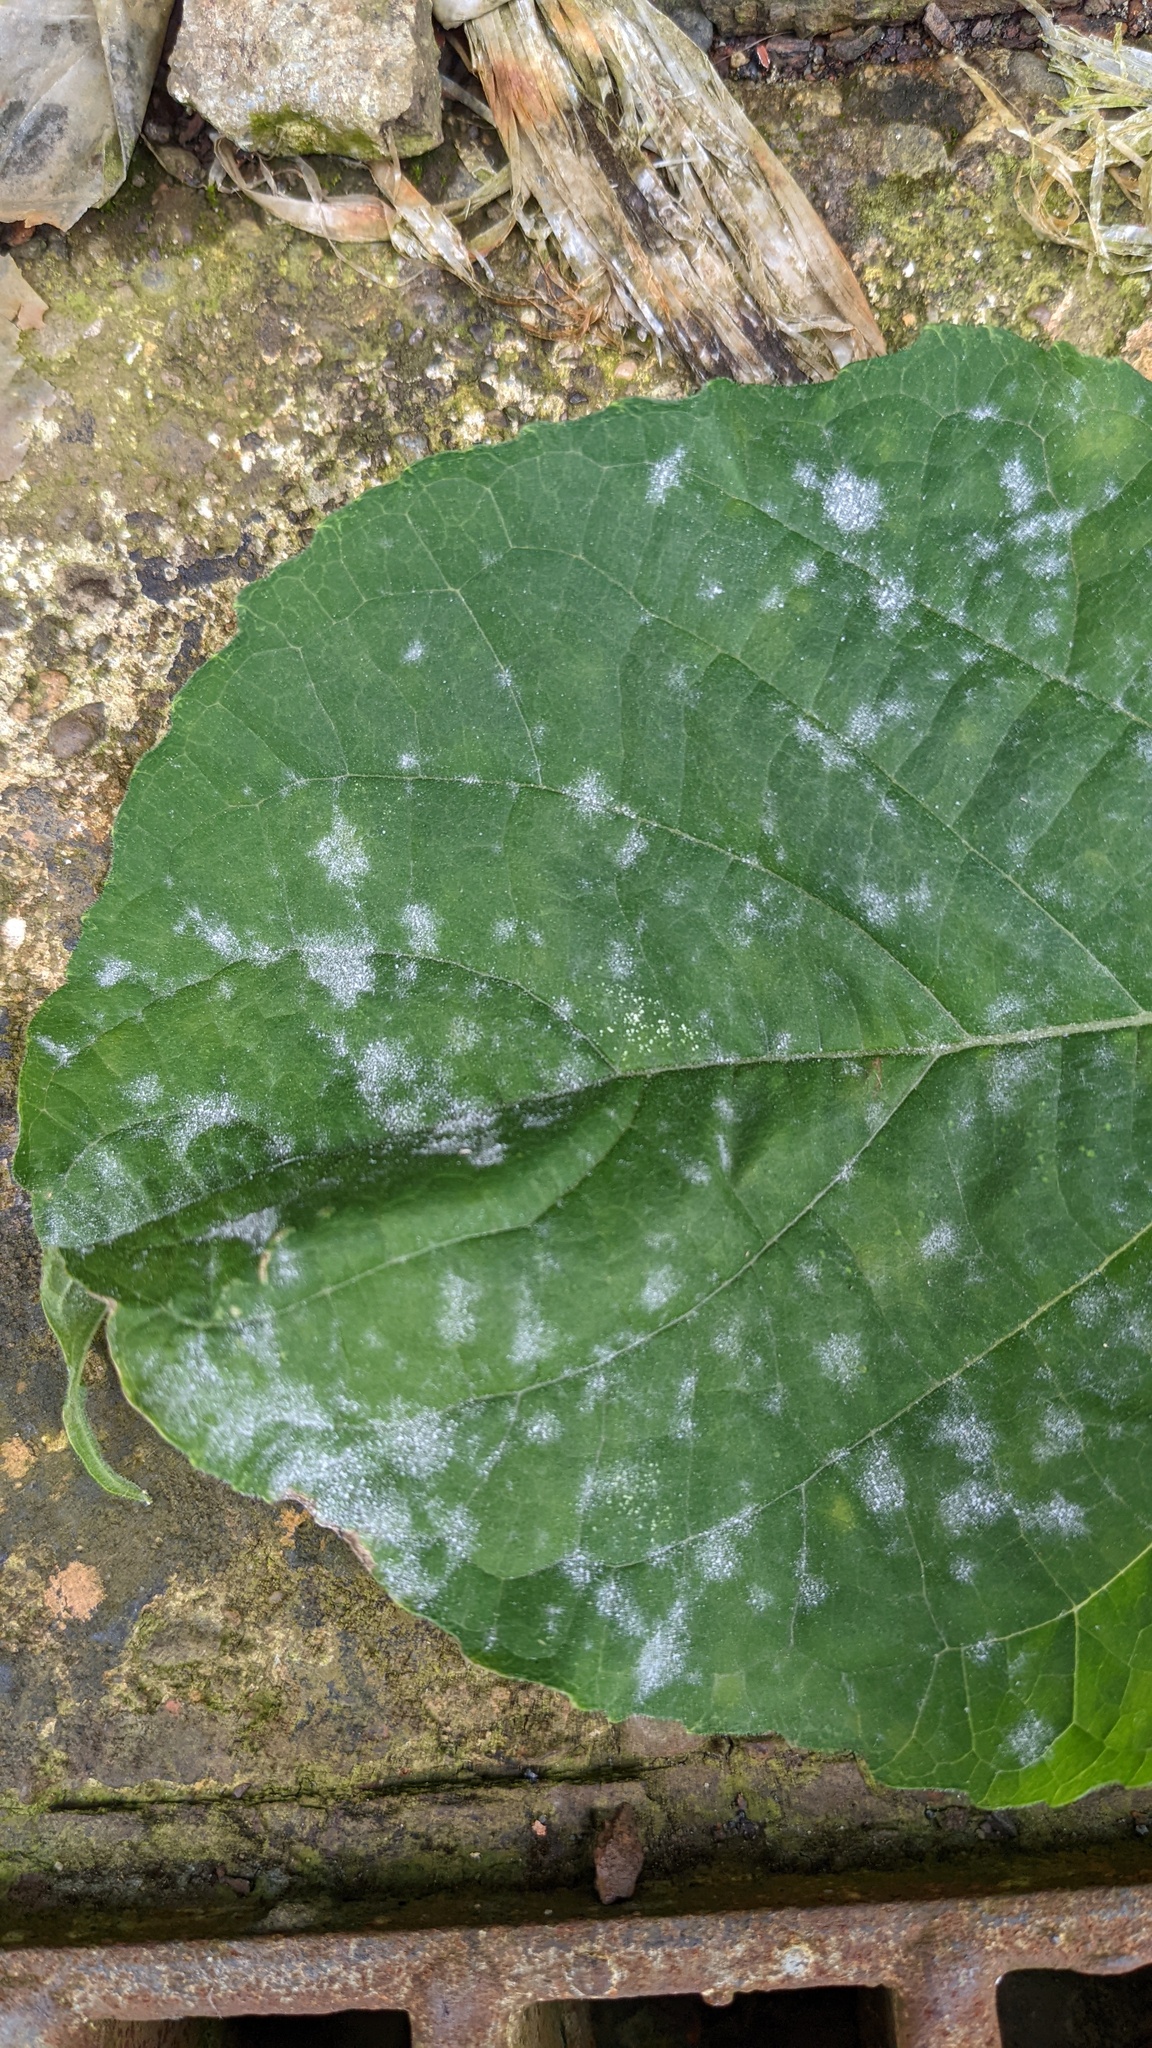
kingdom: Fungi
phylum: Ascomycota
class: Leotiomycetes
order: Helotiales
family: Erysiphaceae
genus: Podosphaera
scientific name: Podosphaera intermedia
